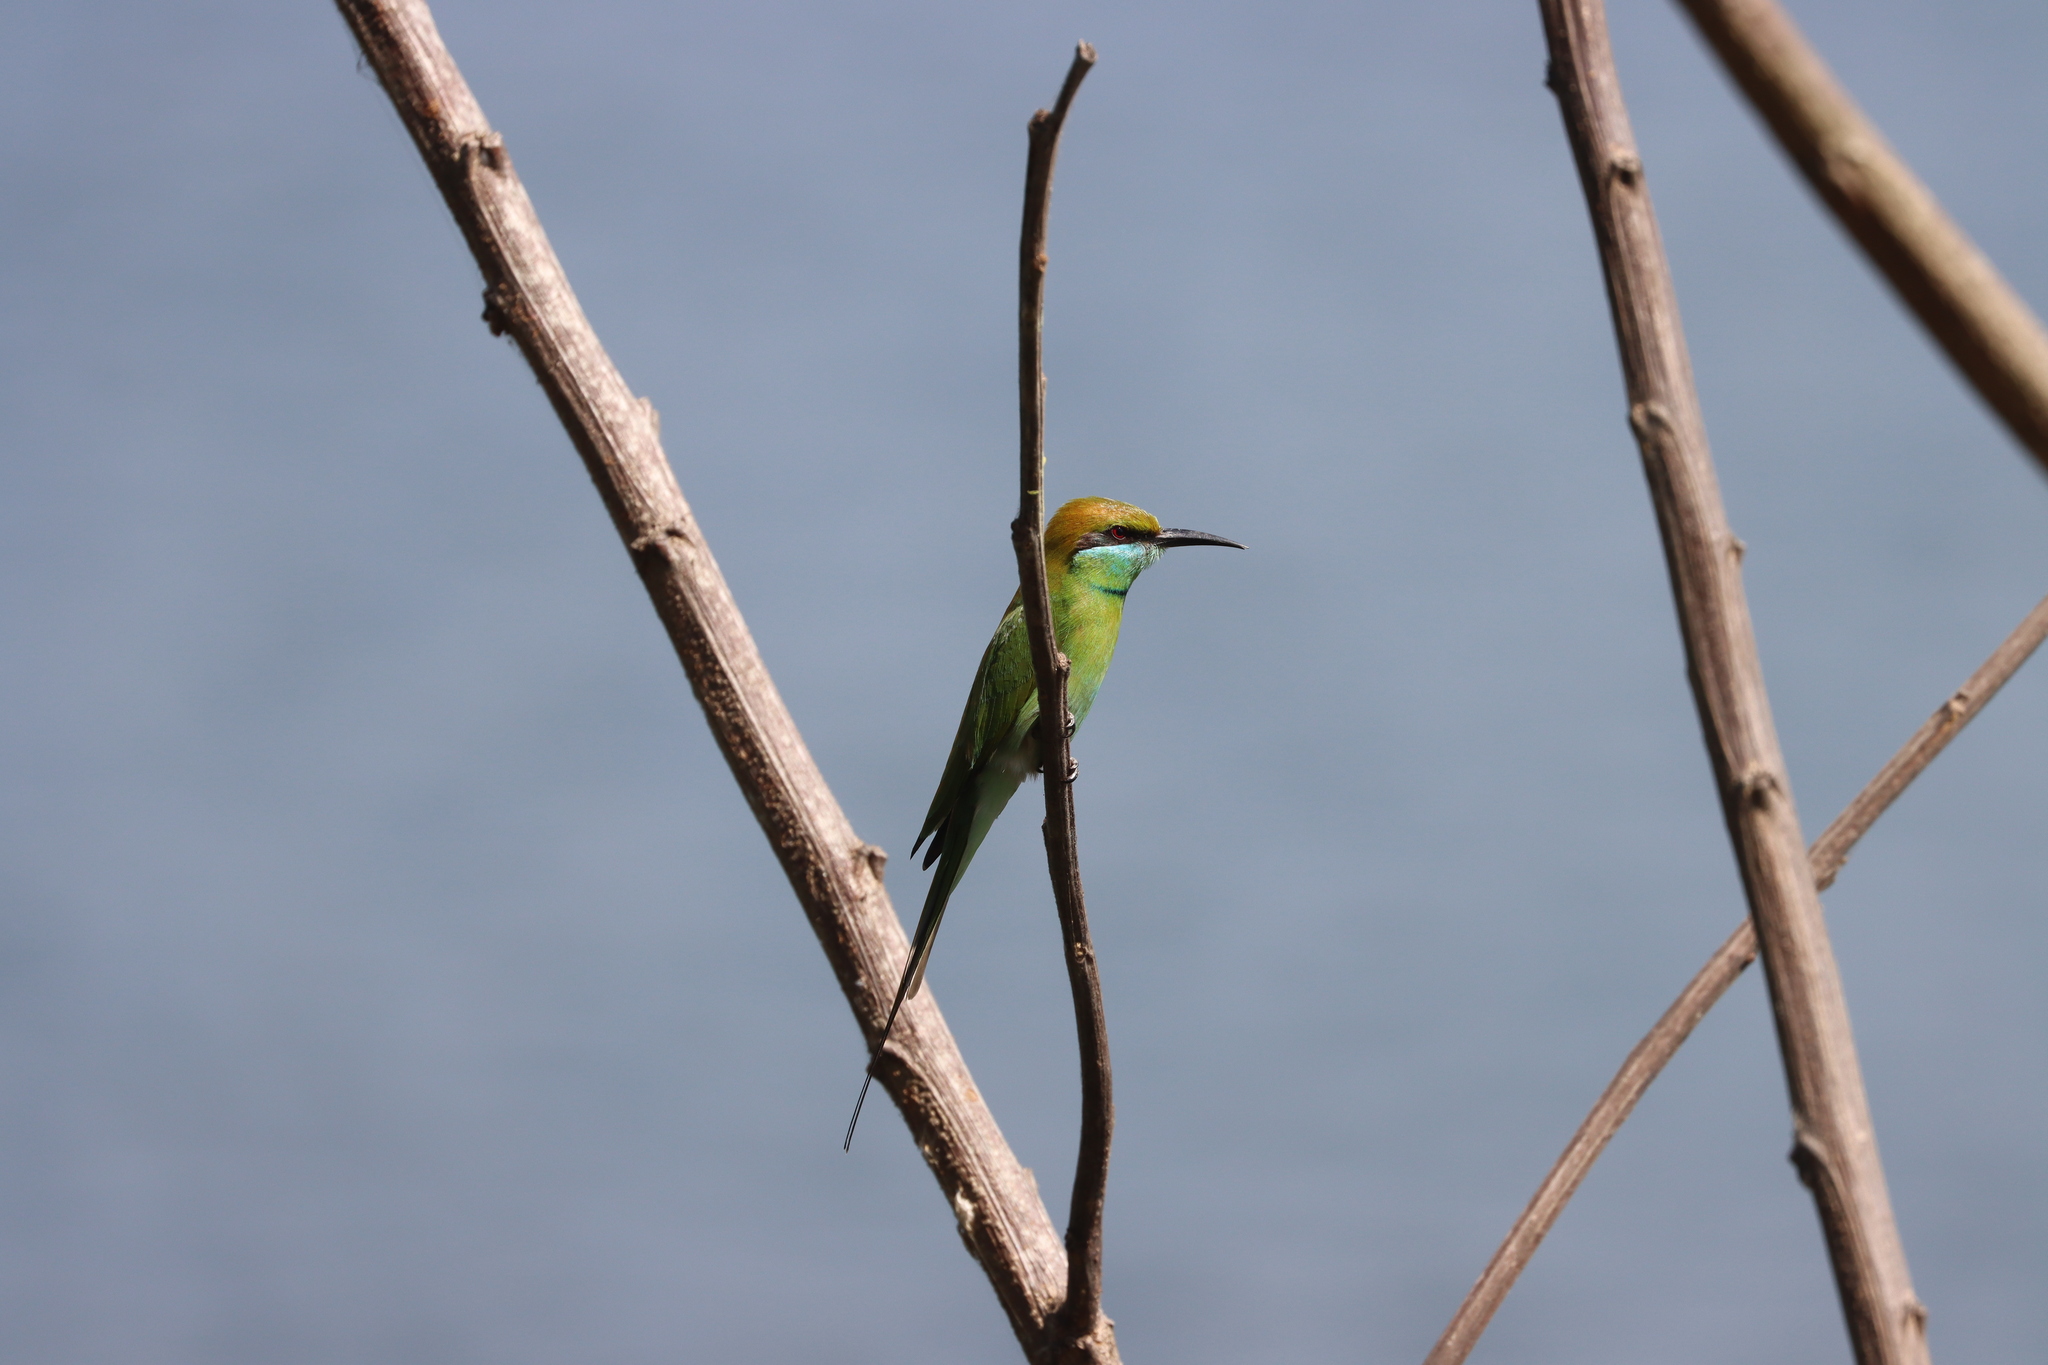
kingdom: Animalia
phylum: Chordata
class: Aves
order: Coraciiformes
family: Meropidae
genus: Merops
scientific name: Merops orientalis
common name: Green bee-eater
